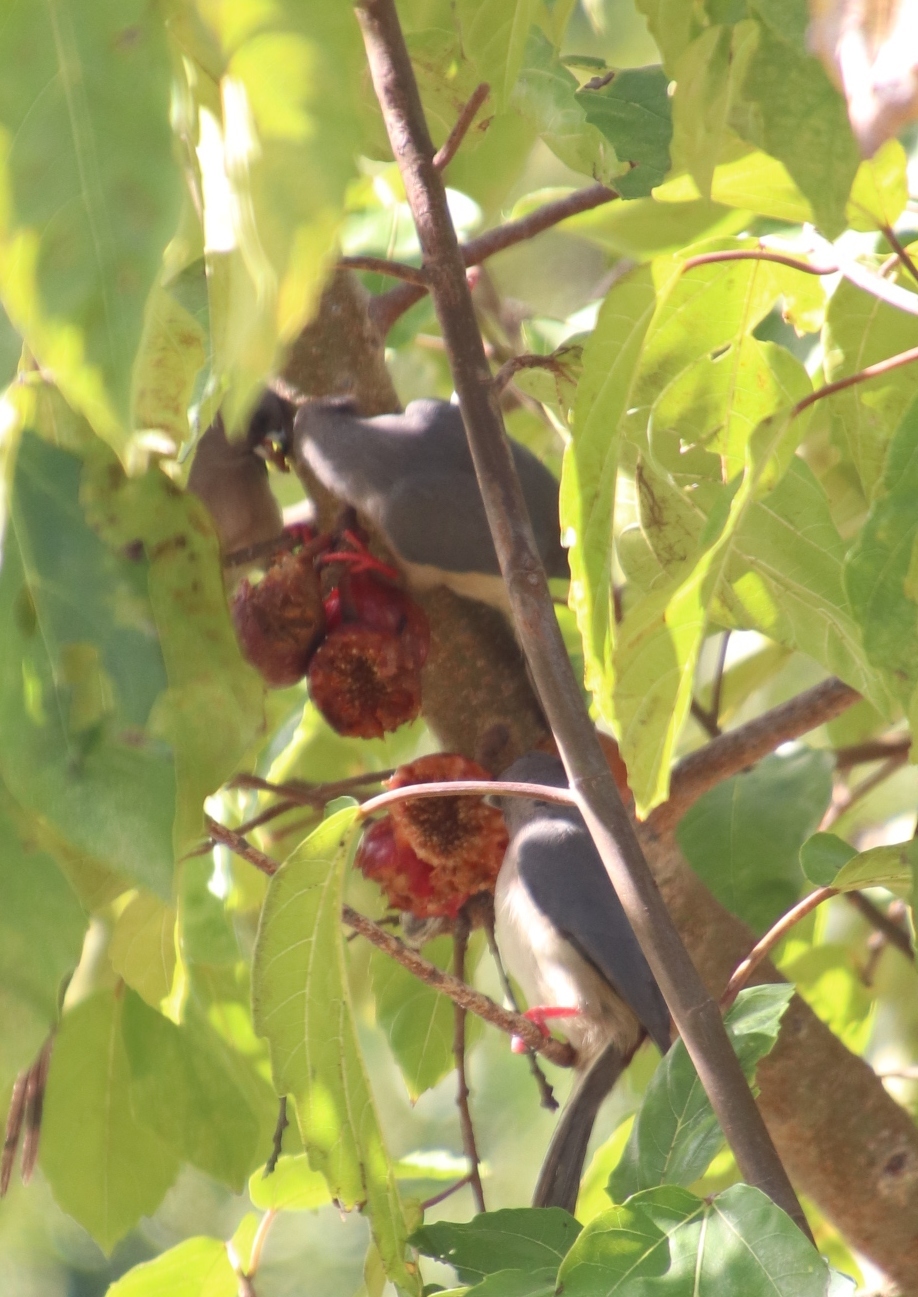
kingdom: Animalia
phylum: Chordata
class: Aves
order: Coliiformes
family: Coliidae
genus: Colius
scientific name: Colius colius
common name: White-backed mousebird
